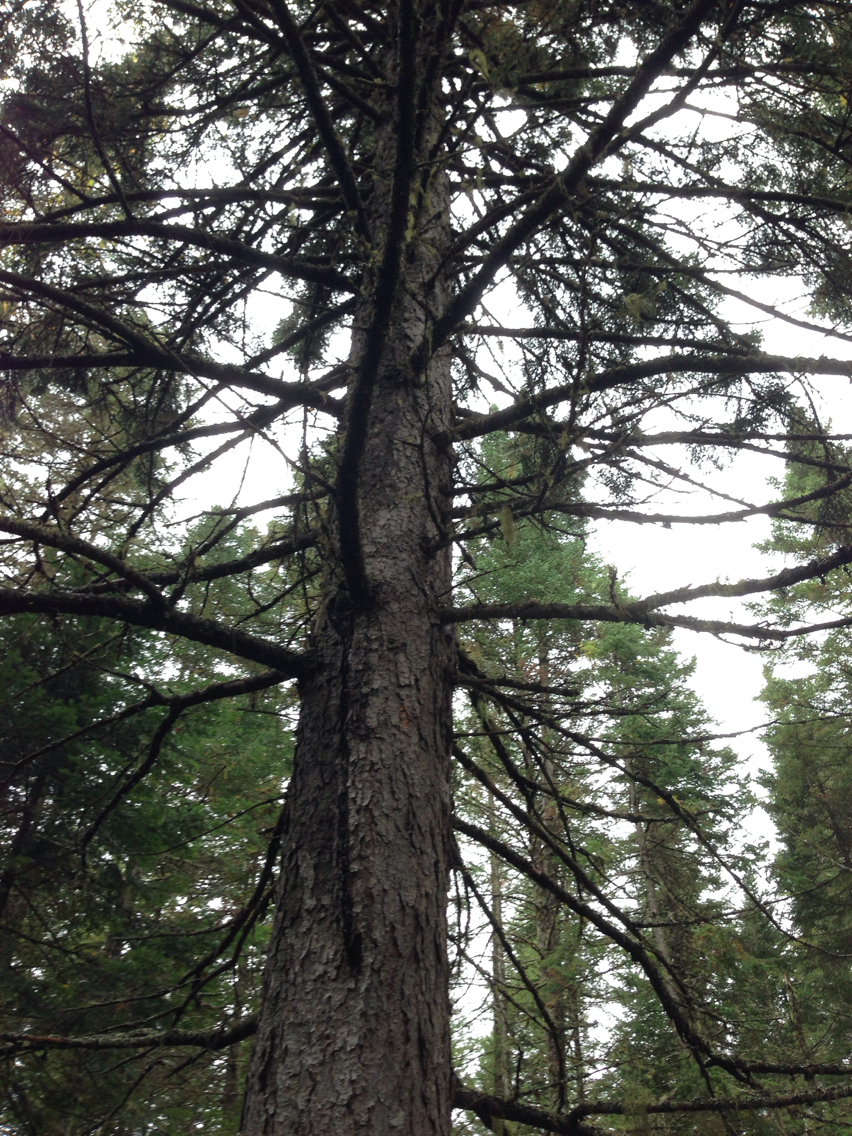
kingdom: Plantae
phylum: Tracheophyta
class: Pinopsida
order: Pinales
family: Pinaceae
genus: Picea
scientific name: Picea rubens
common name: Red spruce
